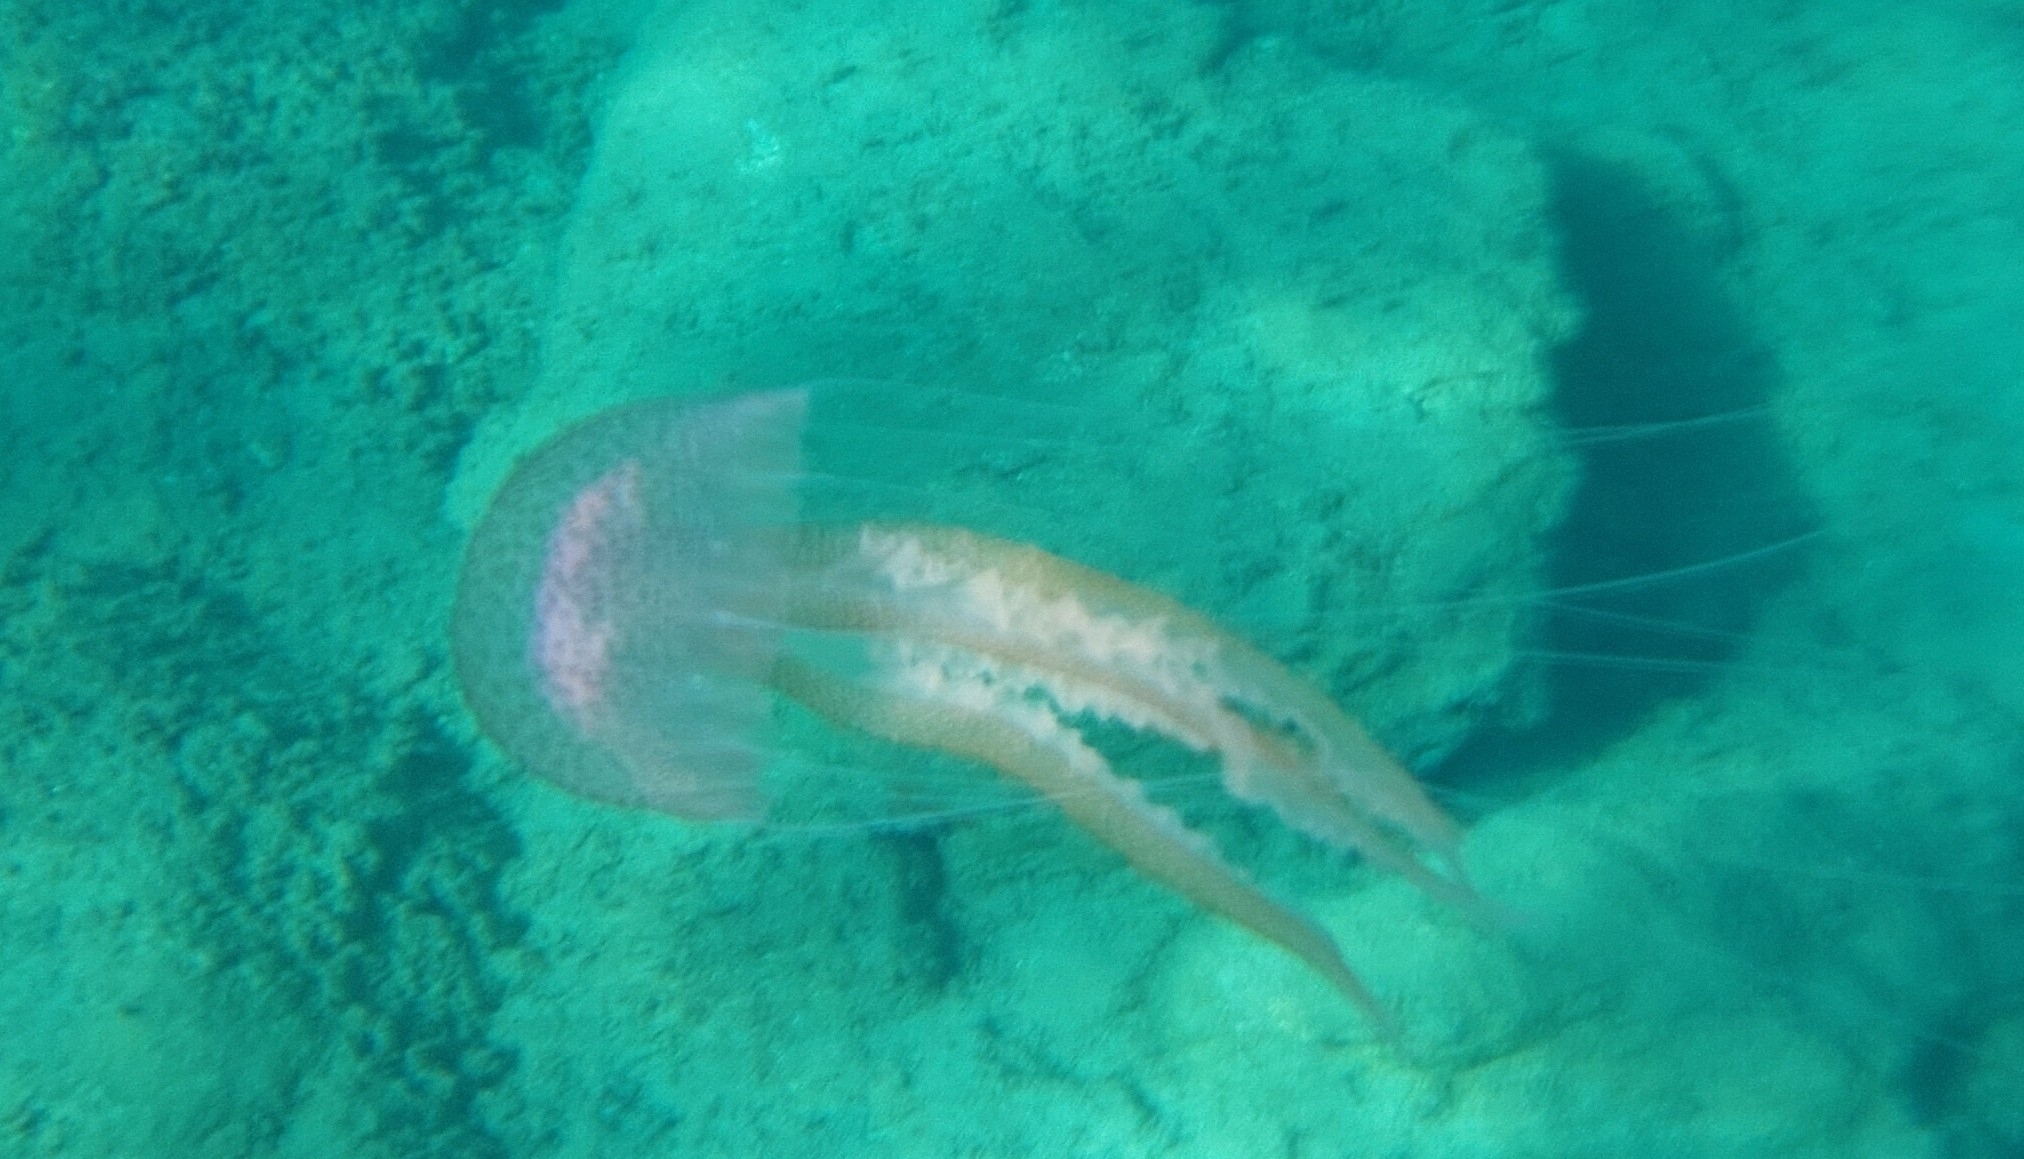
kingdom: Animalia
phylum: Cnidaria
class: Scyphozoa
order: Semaeostomeae
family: Pelagiidae
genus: Pelagia
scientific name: Pelagia noctiluca
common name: Mauve stinger
